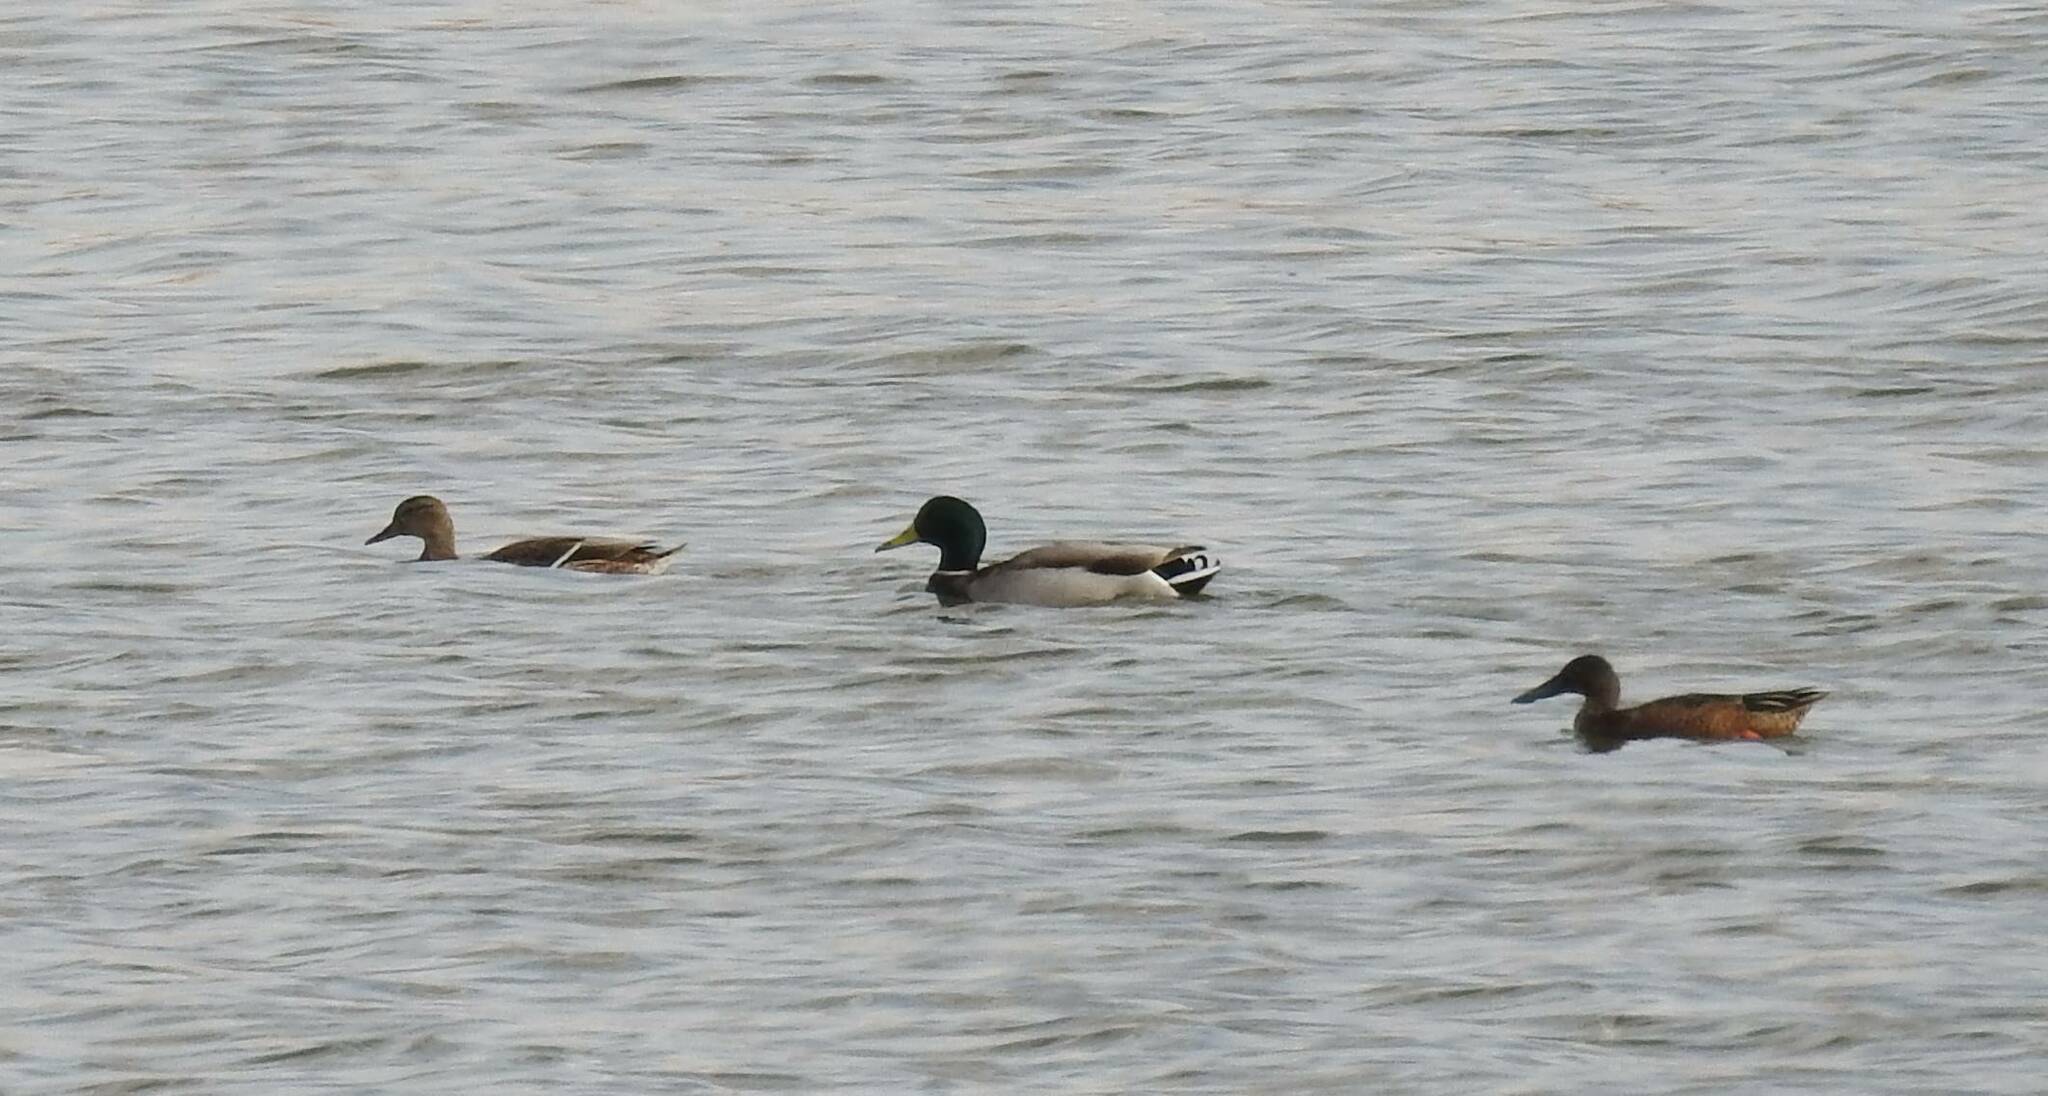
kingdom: Animalia
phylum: Chordata
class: Aves
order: Anseriformes
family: Anatidae
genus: Anas
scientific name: Anas platyrhynchos
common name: Mallard
